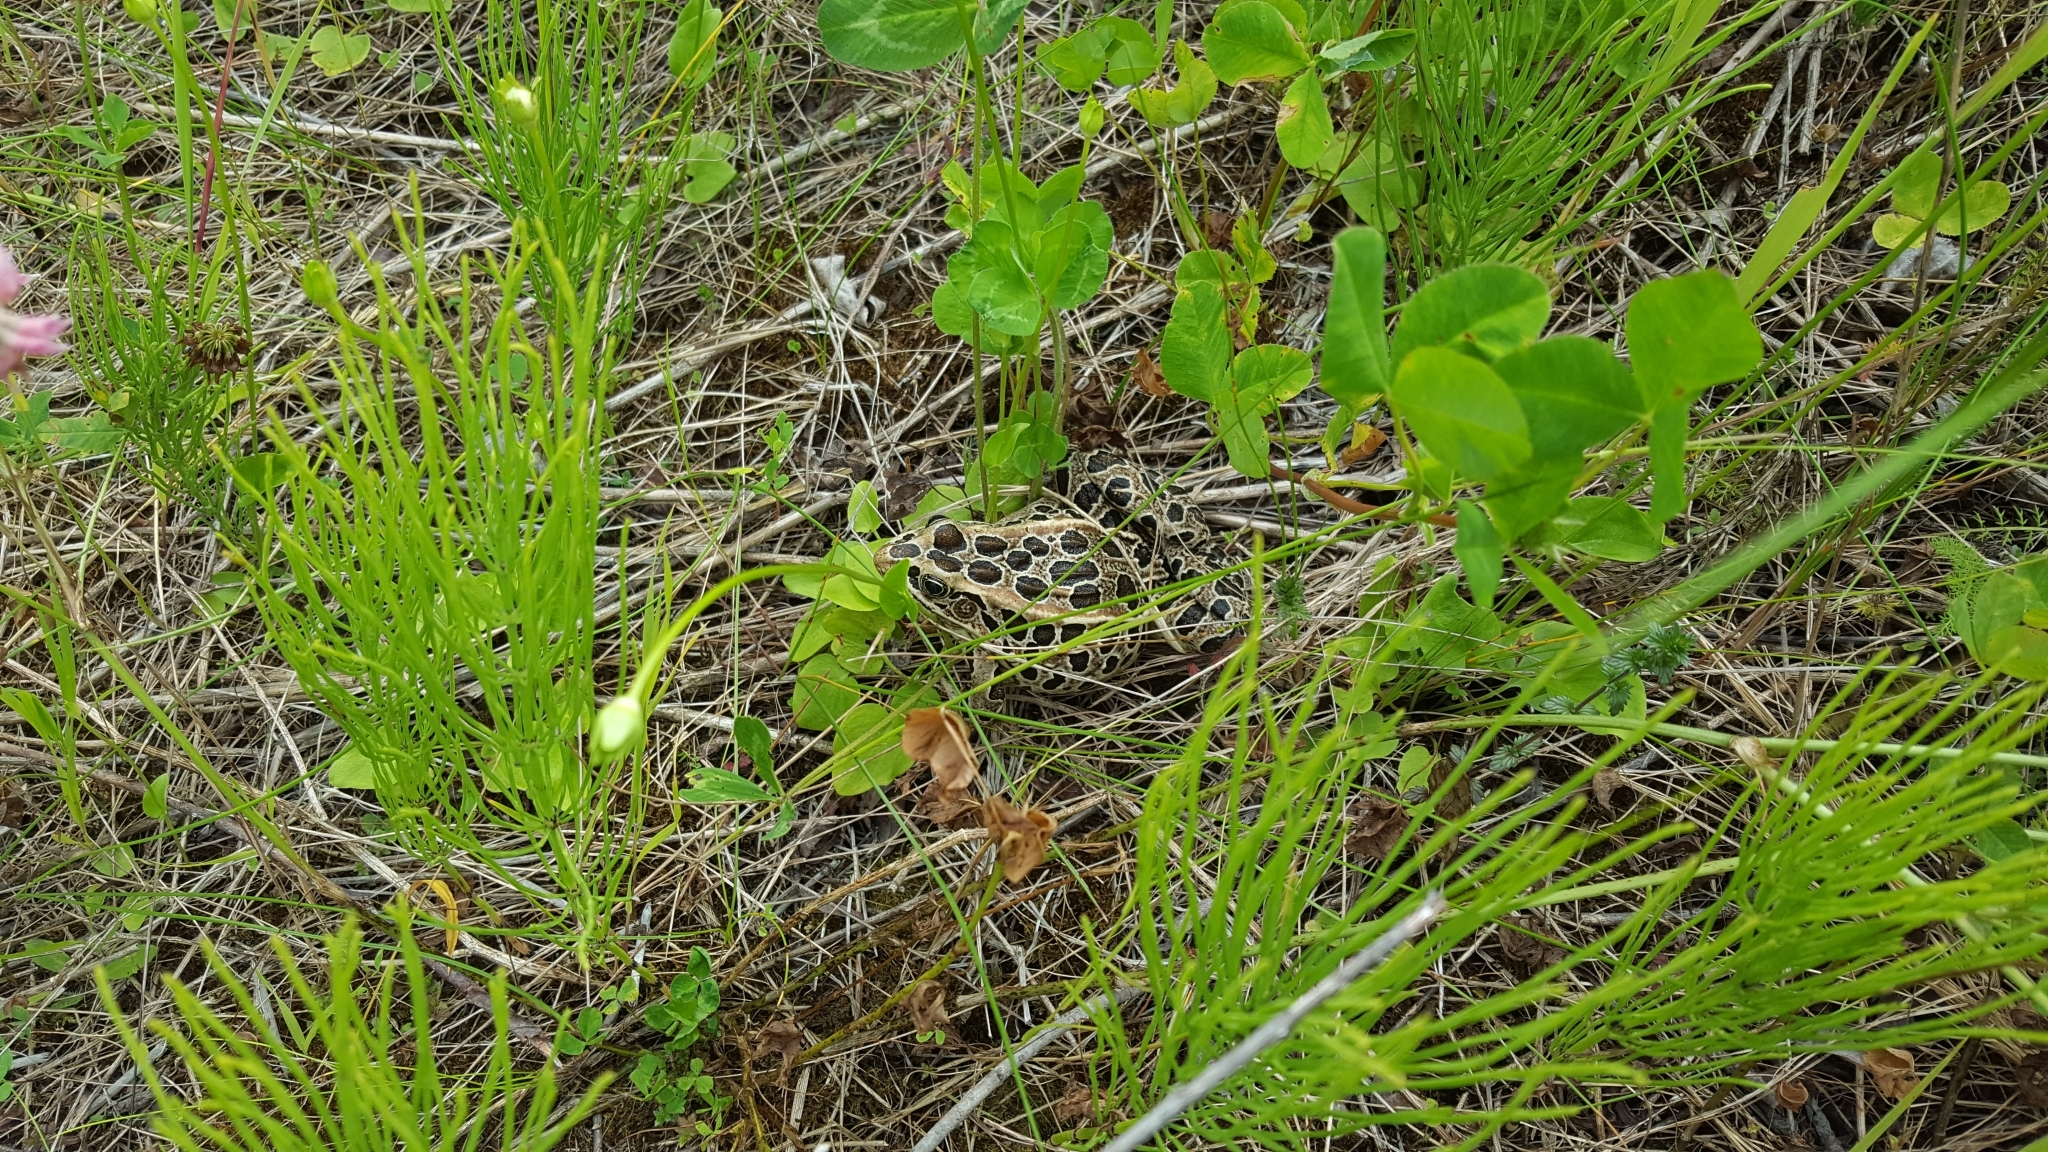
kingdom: Animalia
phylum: Chordata
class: Amphibia
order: Anura
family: Ranidae
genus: Lithobates
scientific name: Lithobates pipiens
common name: Northern leopard frog
